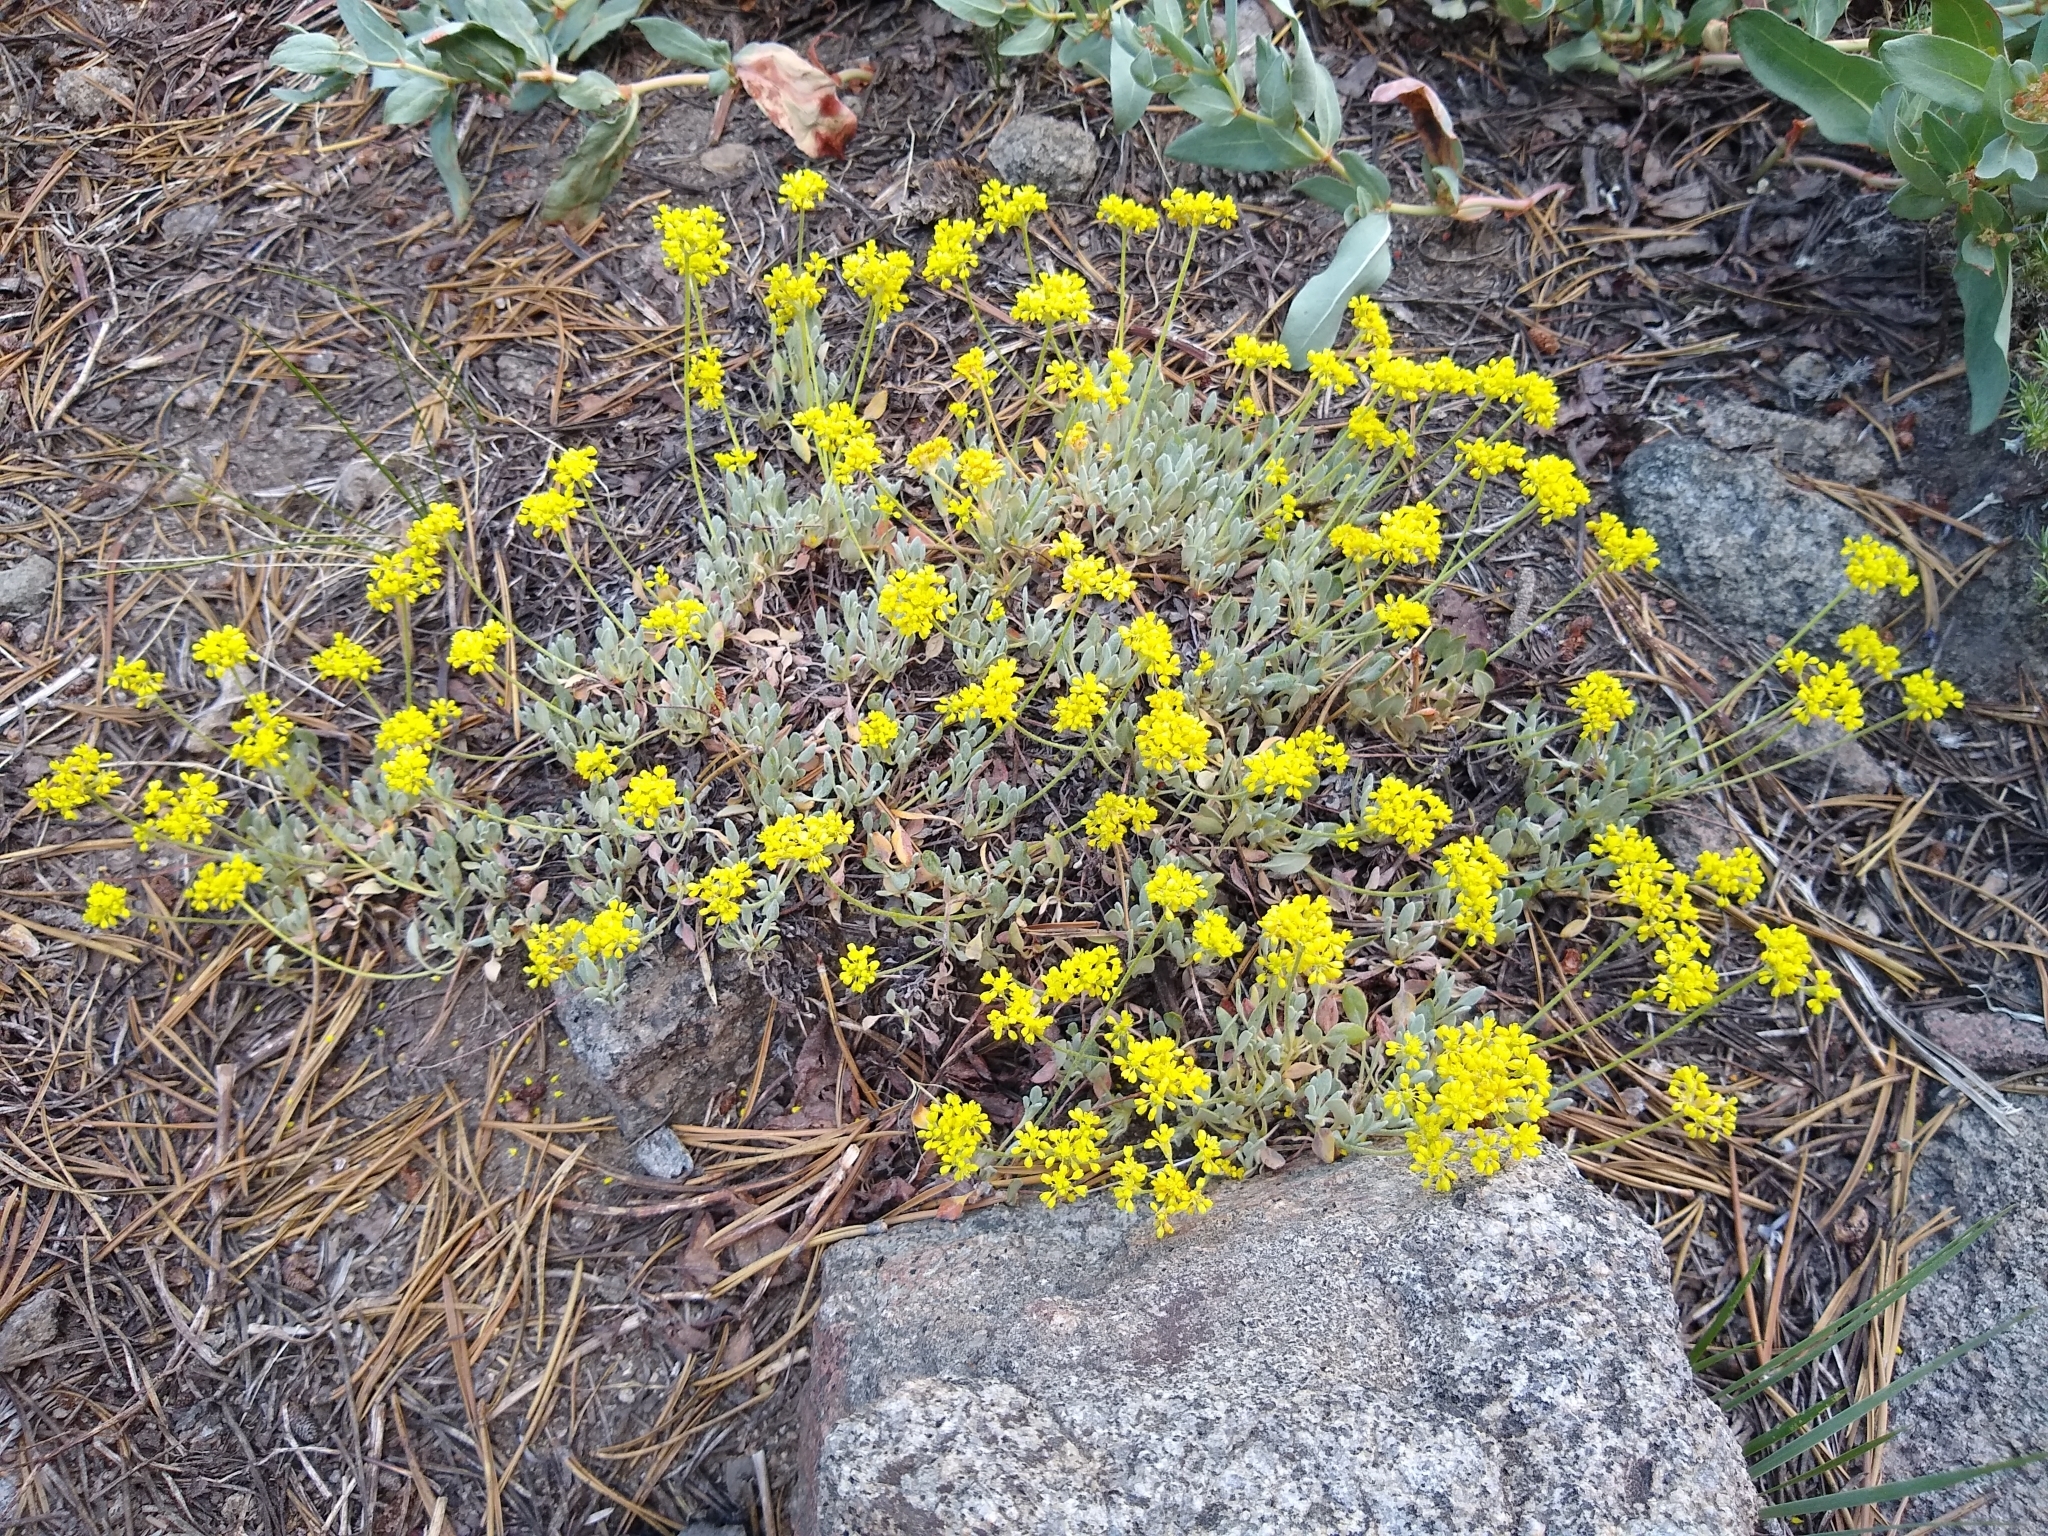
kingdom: Plantae
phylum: Tracheophyta
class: Magnoliopsida
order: Caryophyllales
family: Polygonaceae
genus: Eriogonum
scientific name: Eriogonum umbellatum
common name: Sulfur-buckwheat
